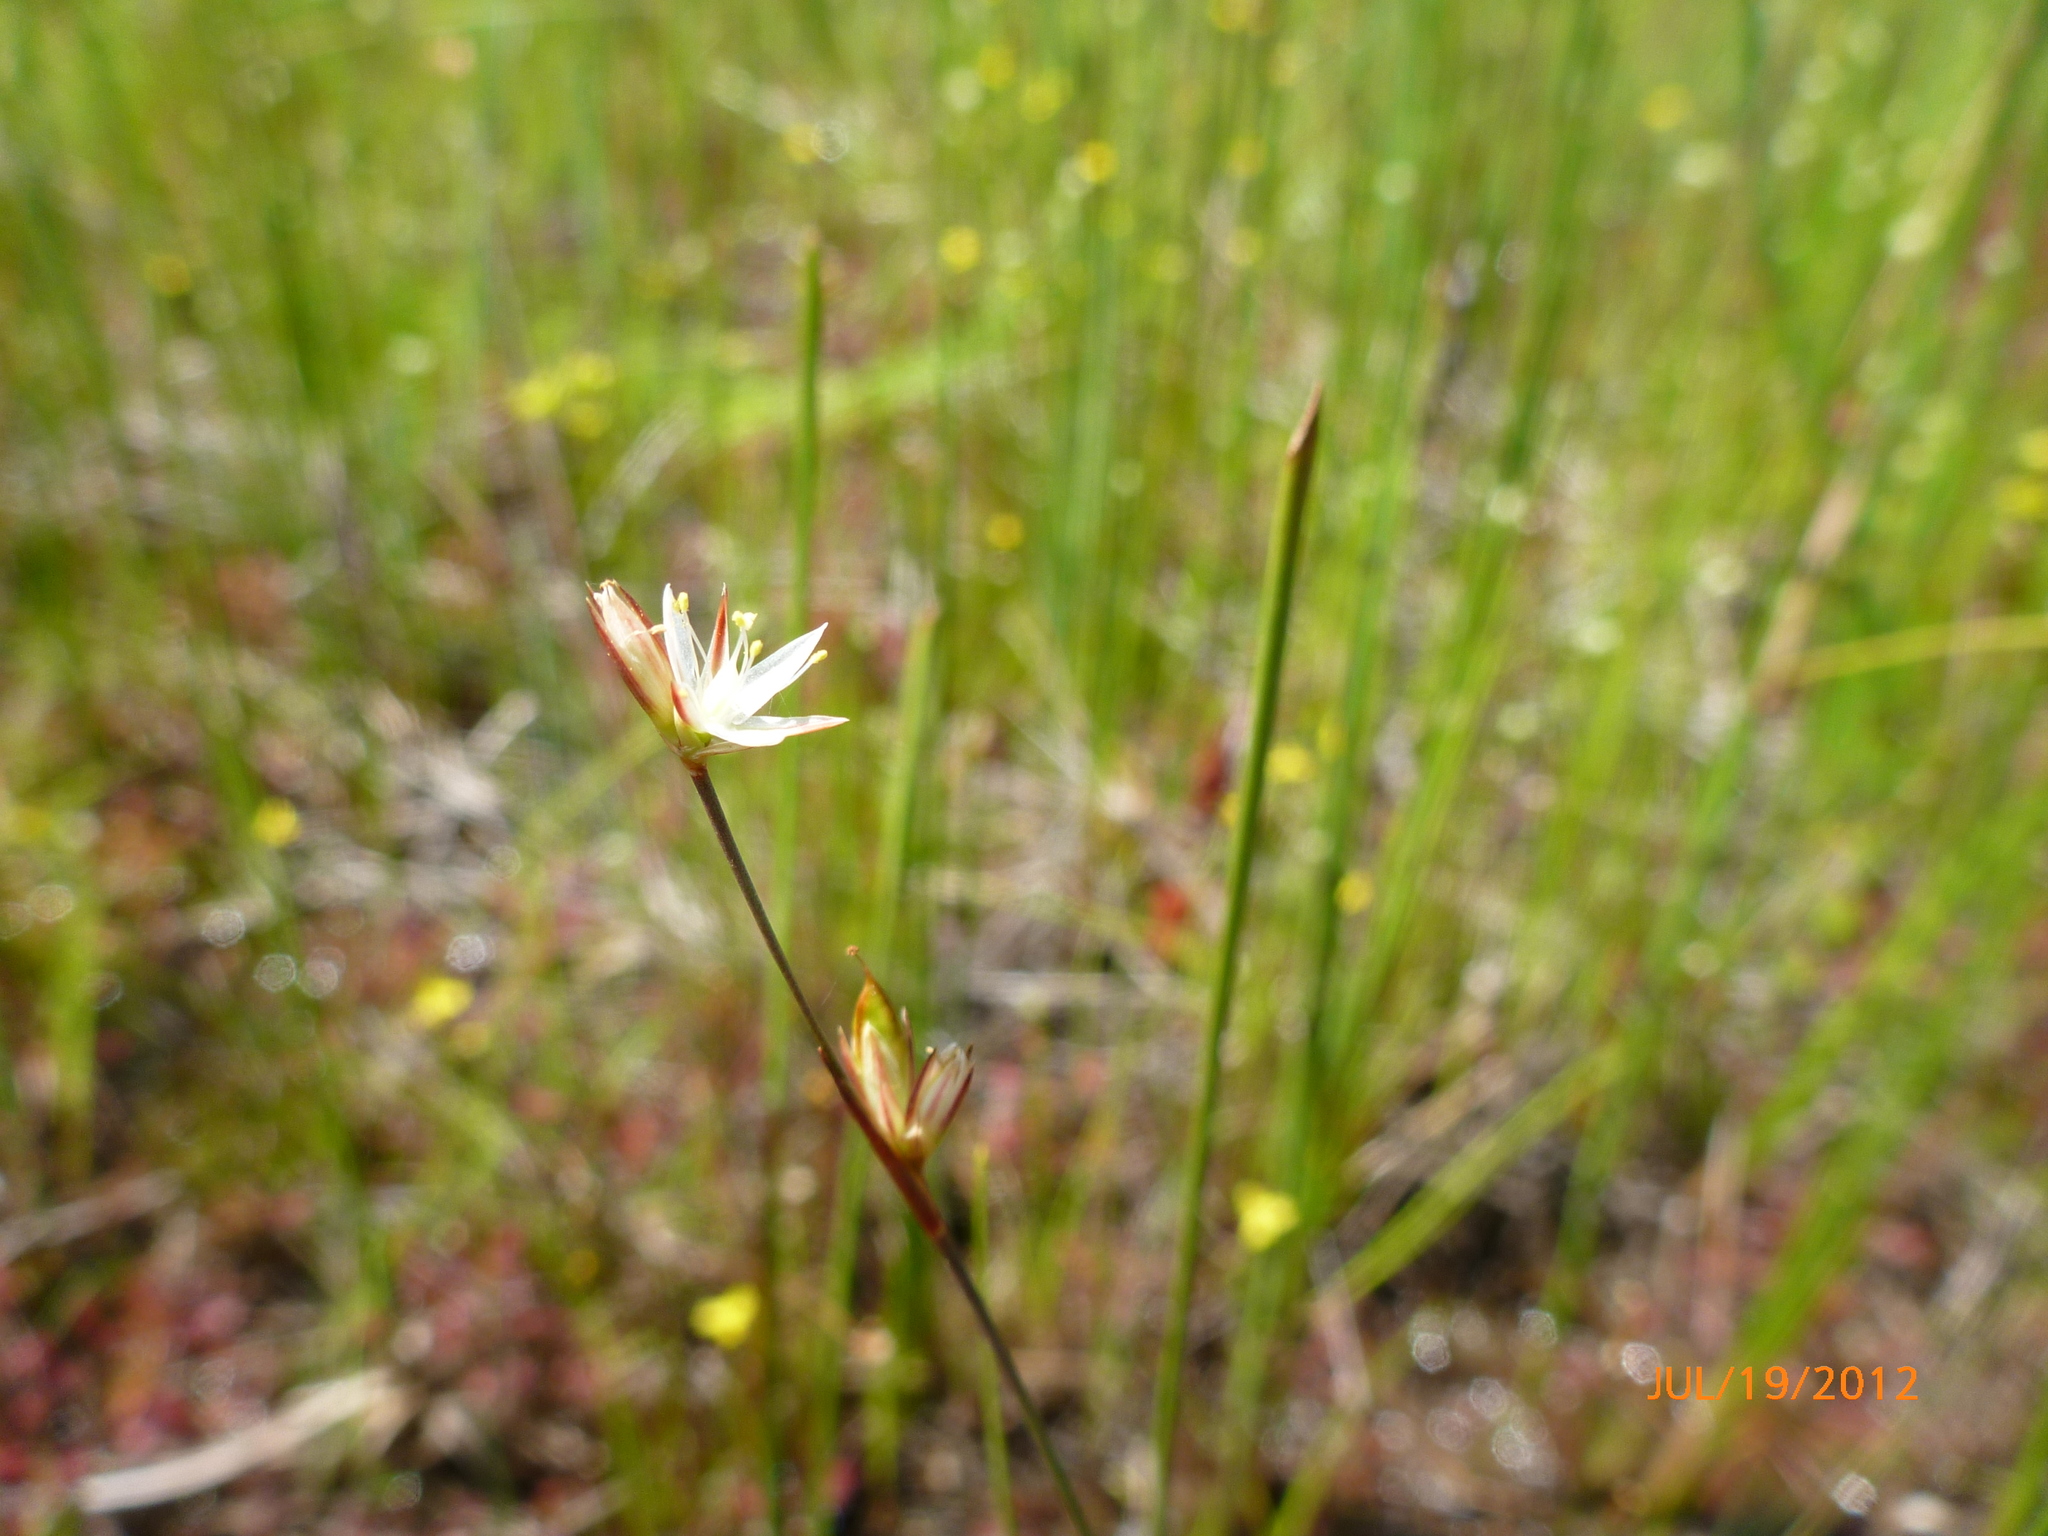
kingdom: Plantae
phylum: Tracheophyta
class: Liliopsida
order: Poales
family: Juncaceae
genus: Juncus
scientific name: Juncus stygius
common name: Bog rush
